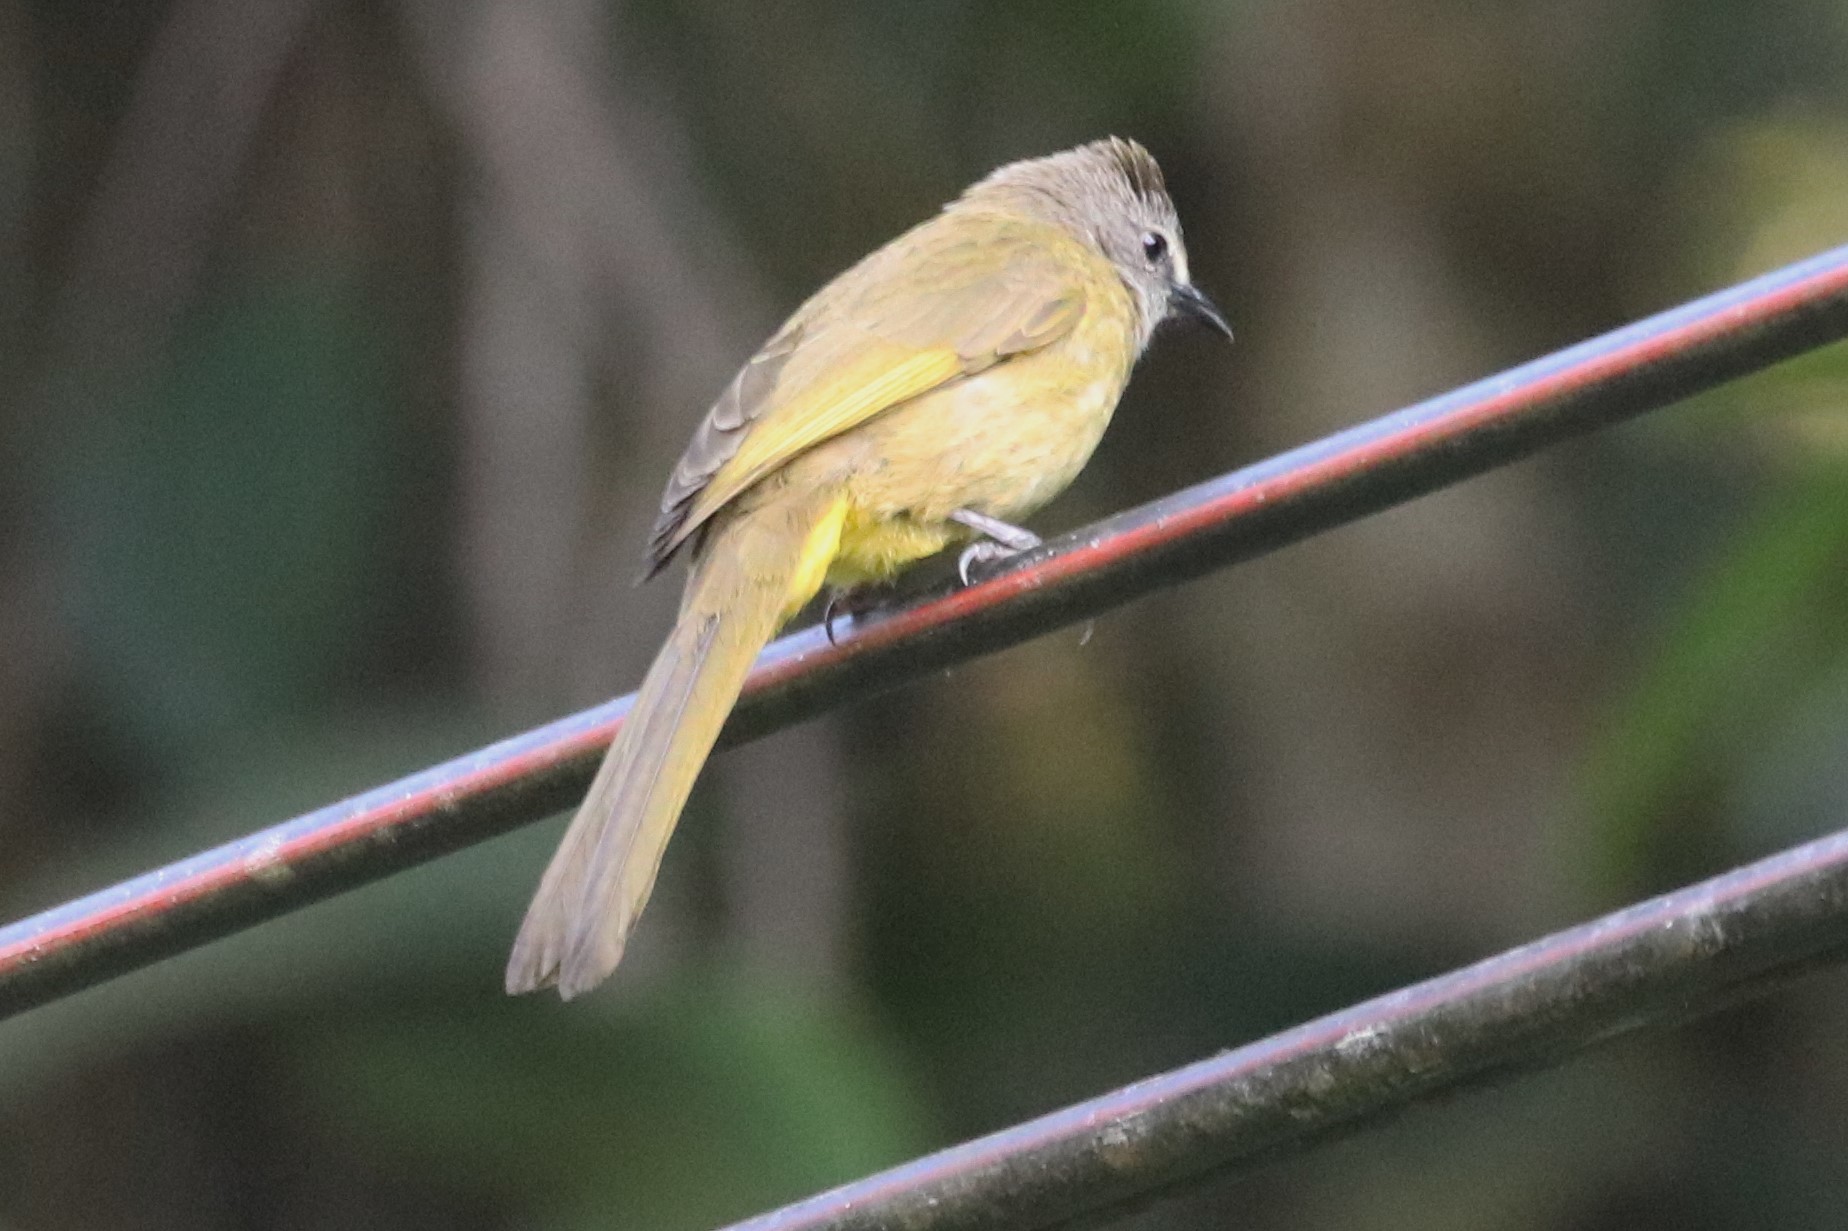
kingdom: Animalia
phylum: Chordata
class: Aves
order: Passeriformes
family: Pycnonotidae
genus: Pycnonotus
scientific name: Pycnonotus flavescens
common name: Flavescent bulbul
